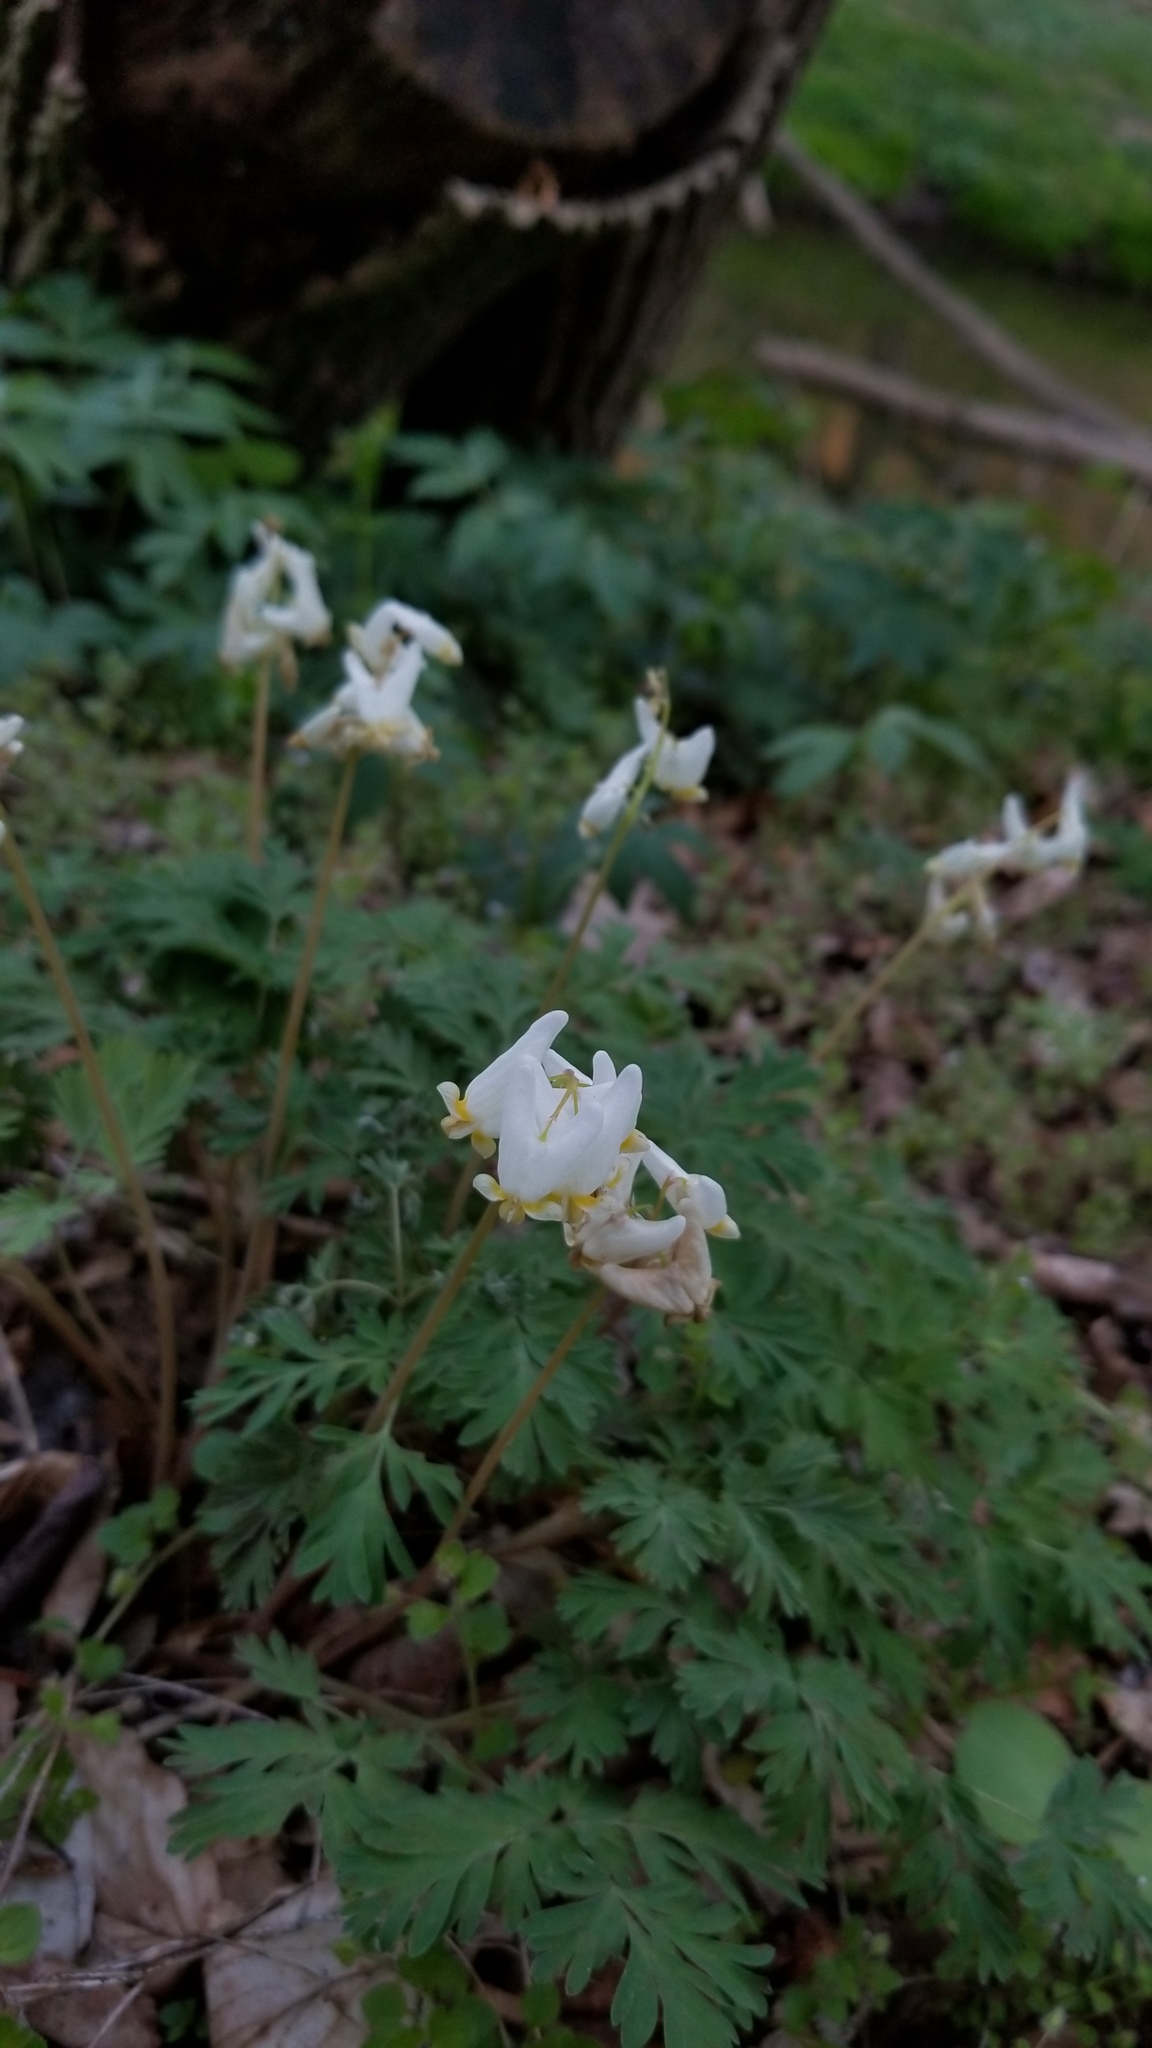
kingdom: Plantae
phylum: Tracheophyta
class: Magnoliopsida
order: Ranunculales
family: Papaveraceae
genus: Dicentra
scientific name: Dicentra cucullaria
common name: Dutchman's breeches
